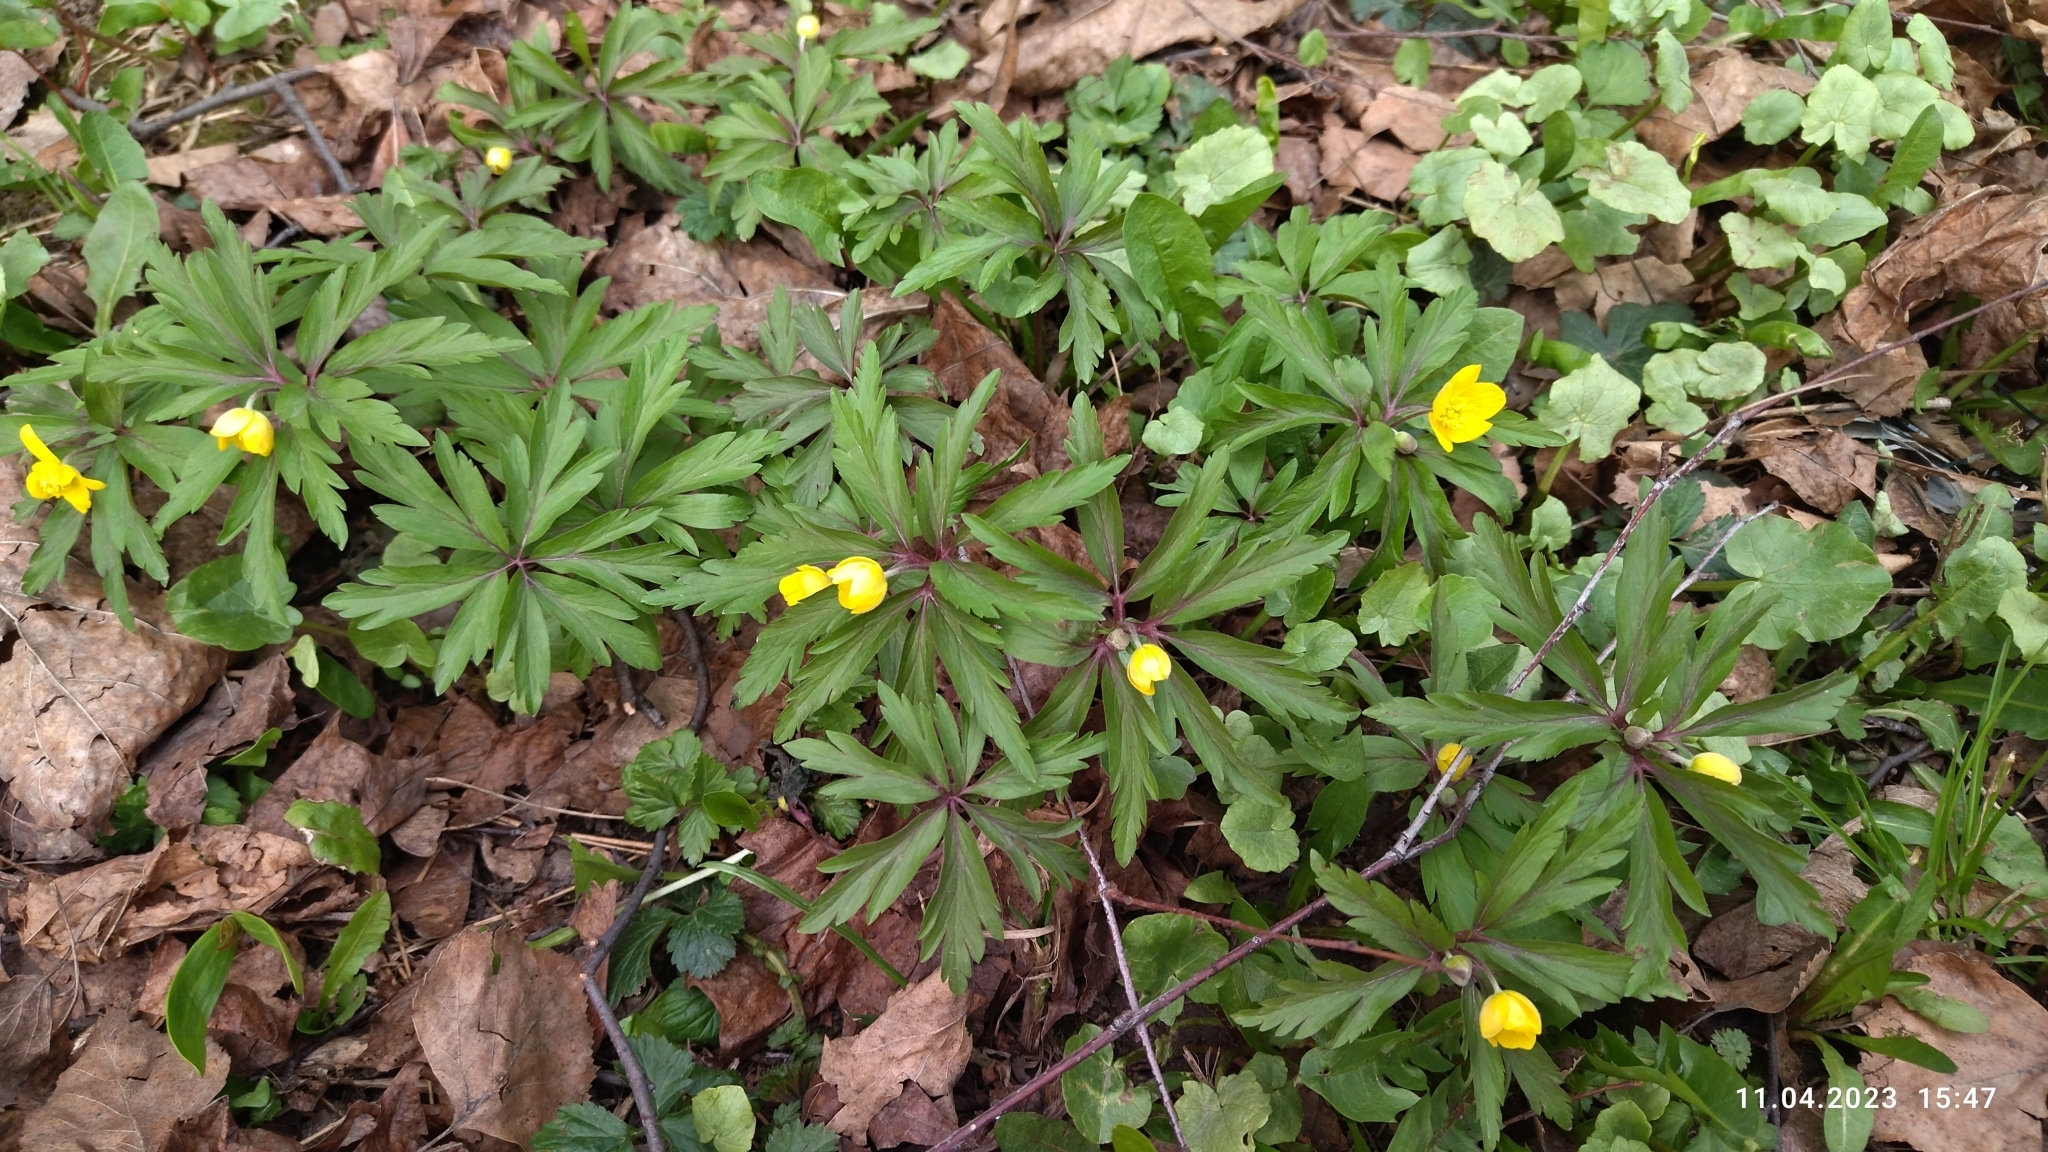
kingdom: Plantae
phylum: Tracheophyta
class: Magnoliopsida
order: Ranunculales
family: Ranunculaceae
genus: Anemone
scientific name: Anemone ranunculoides
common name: Yellow anemone
